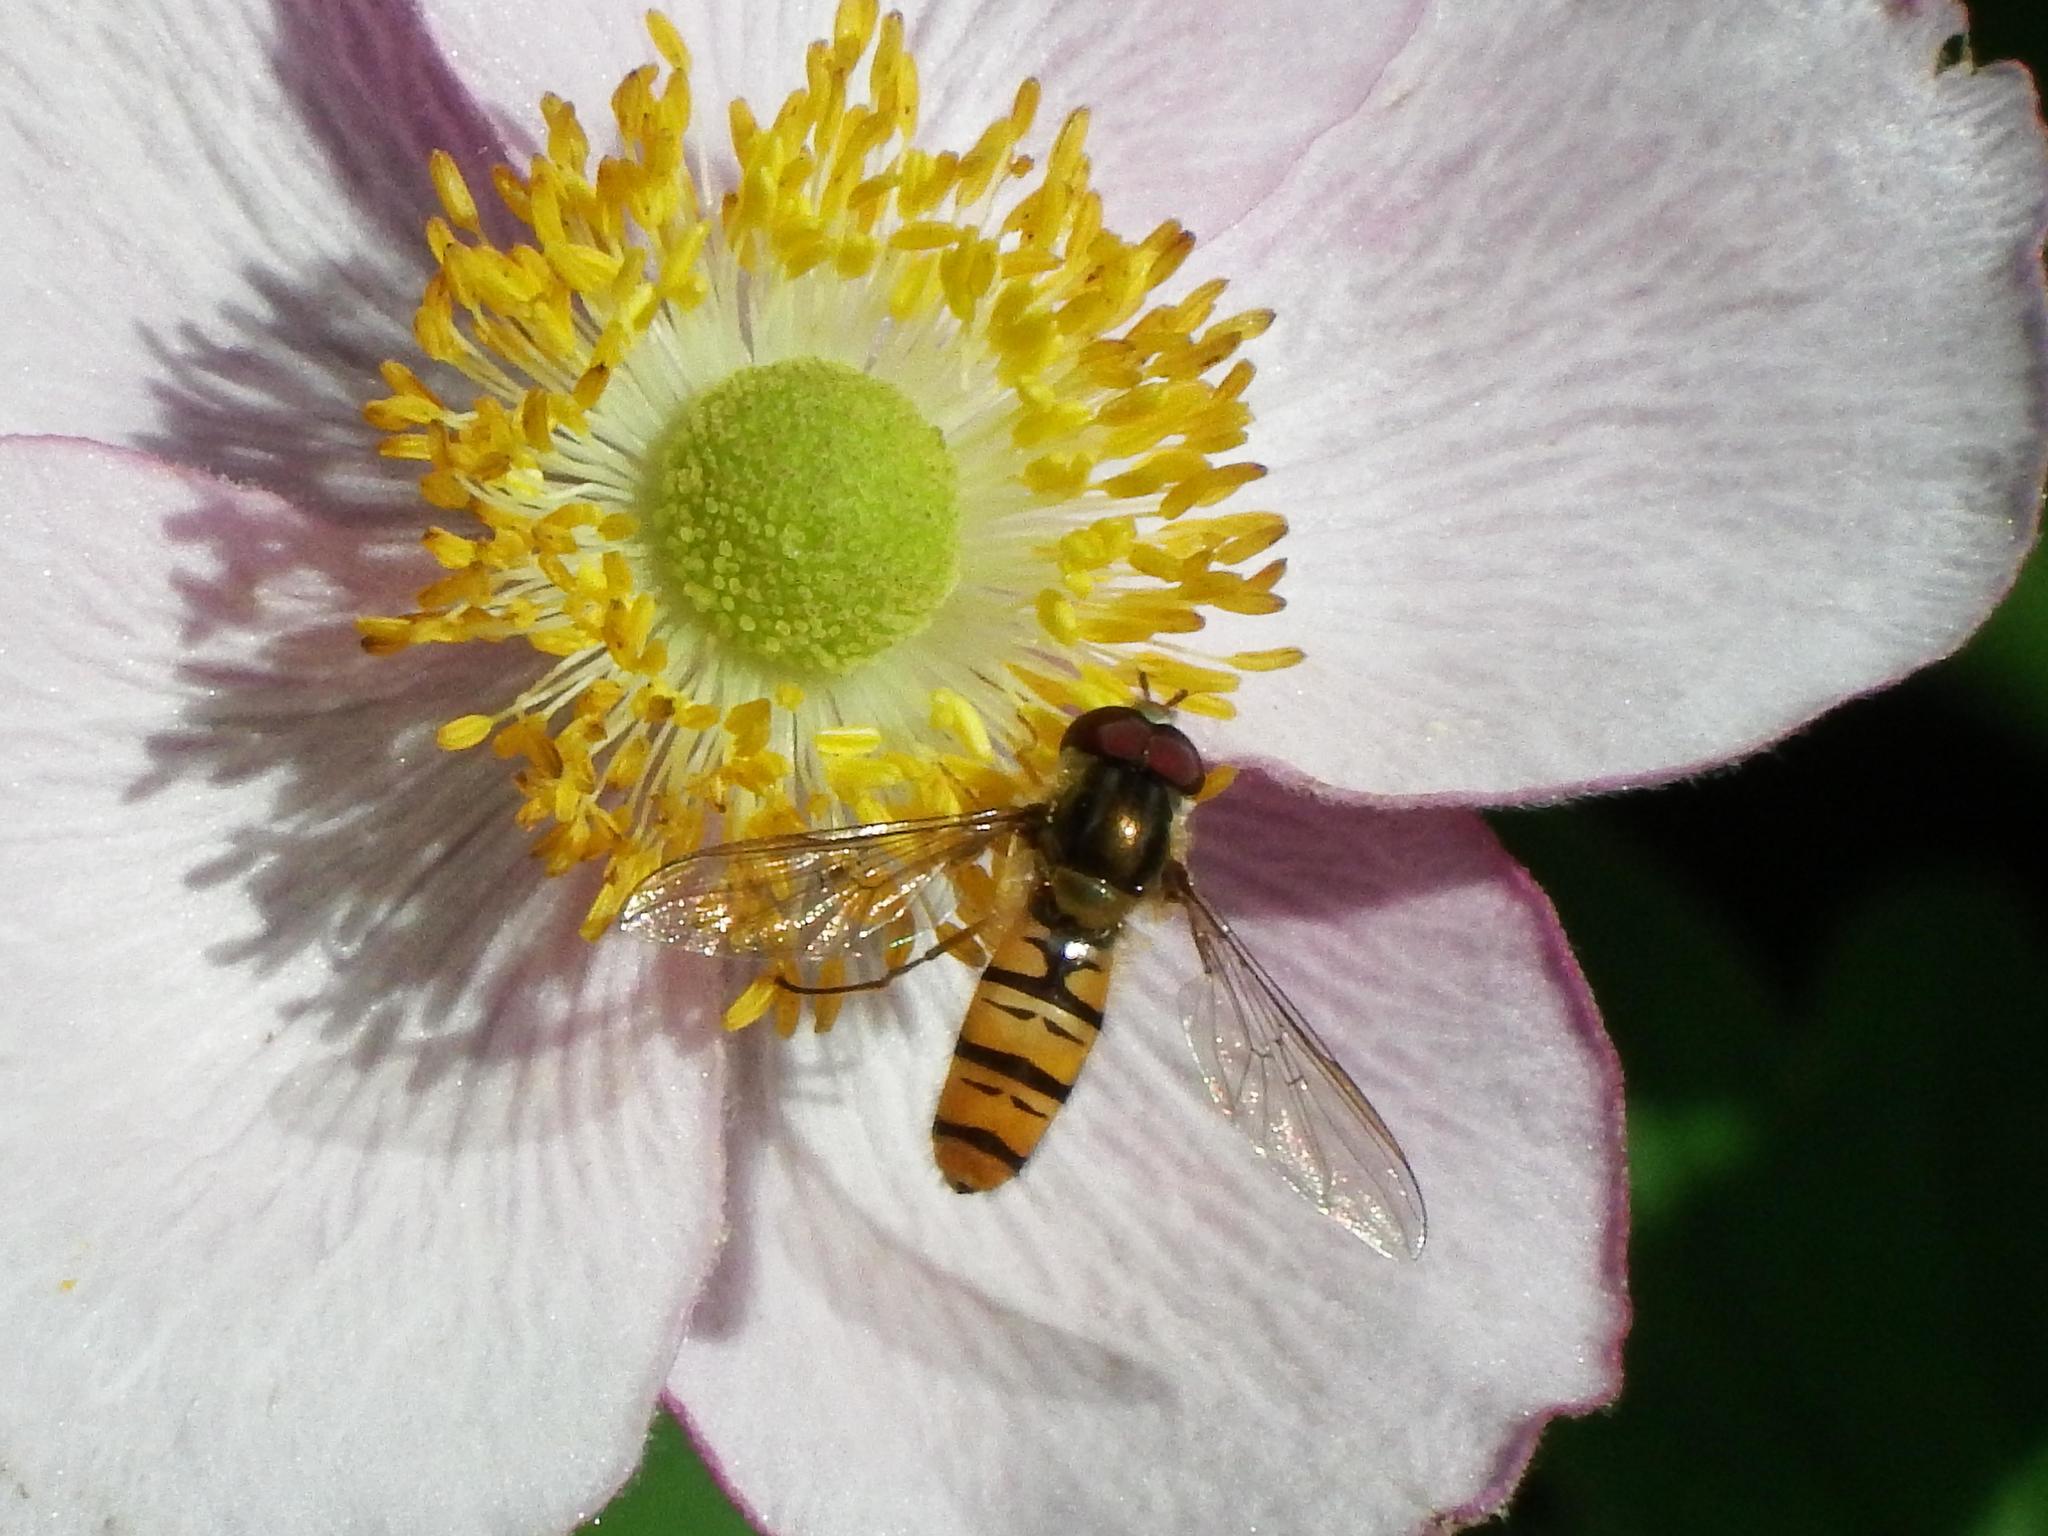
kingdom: Animalia
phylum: Arthropoda
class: Insecta
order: Diptera
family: Syrphidae
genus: Episyrphus
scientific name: Episyrphus balteatus
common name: Marmalade hoverfly
